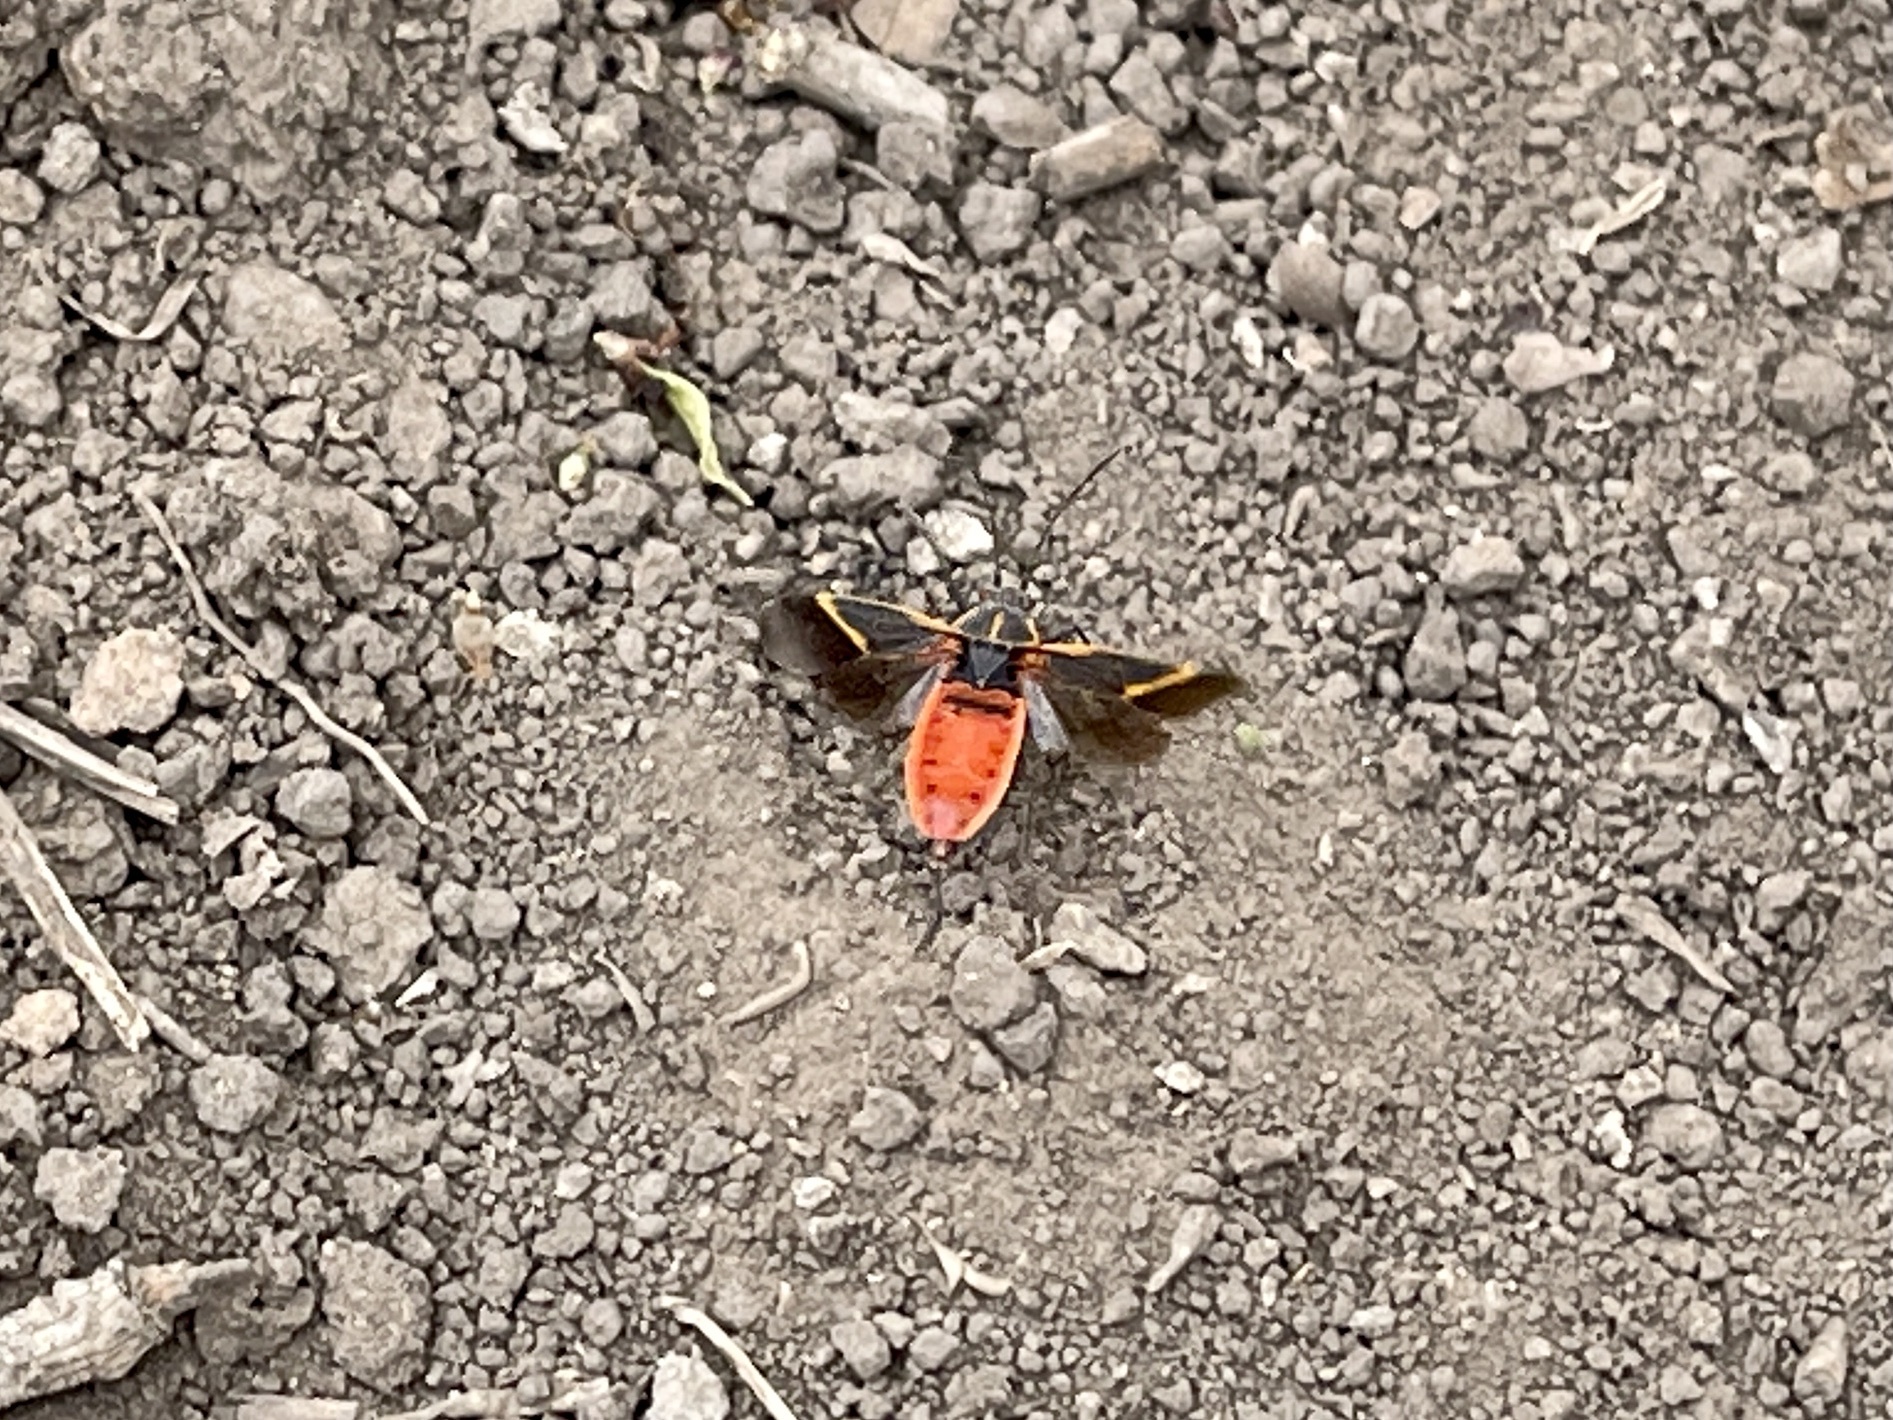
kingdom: Animalia
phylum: Arthropoda
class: Insecta
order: Hemiptera
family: Rhopalidae
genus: Boisea
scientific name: Boisea trivittata
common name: Boxelder bug
